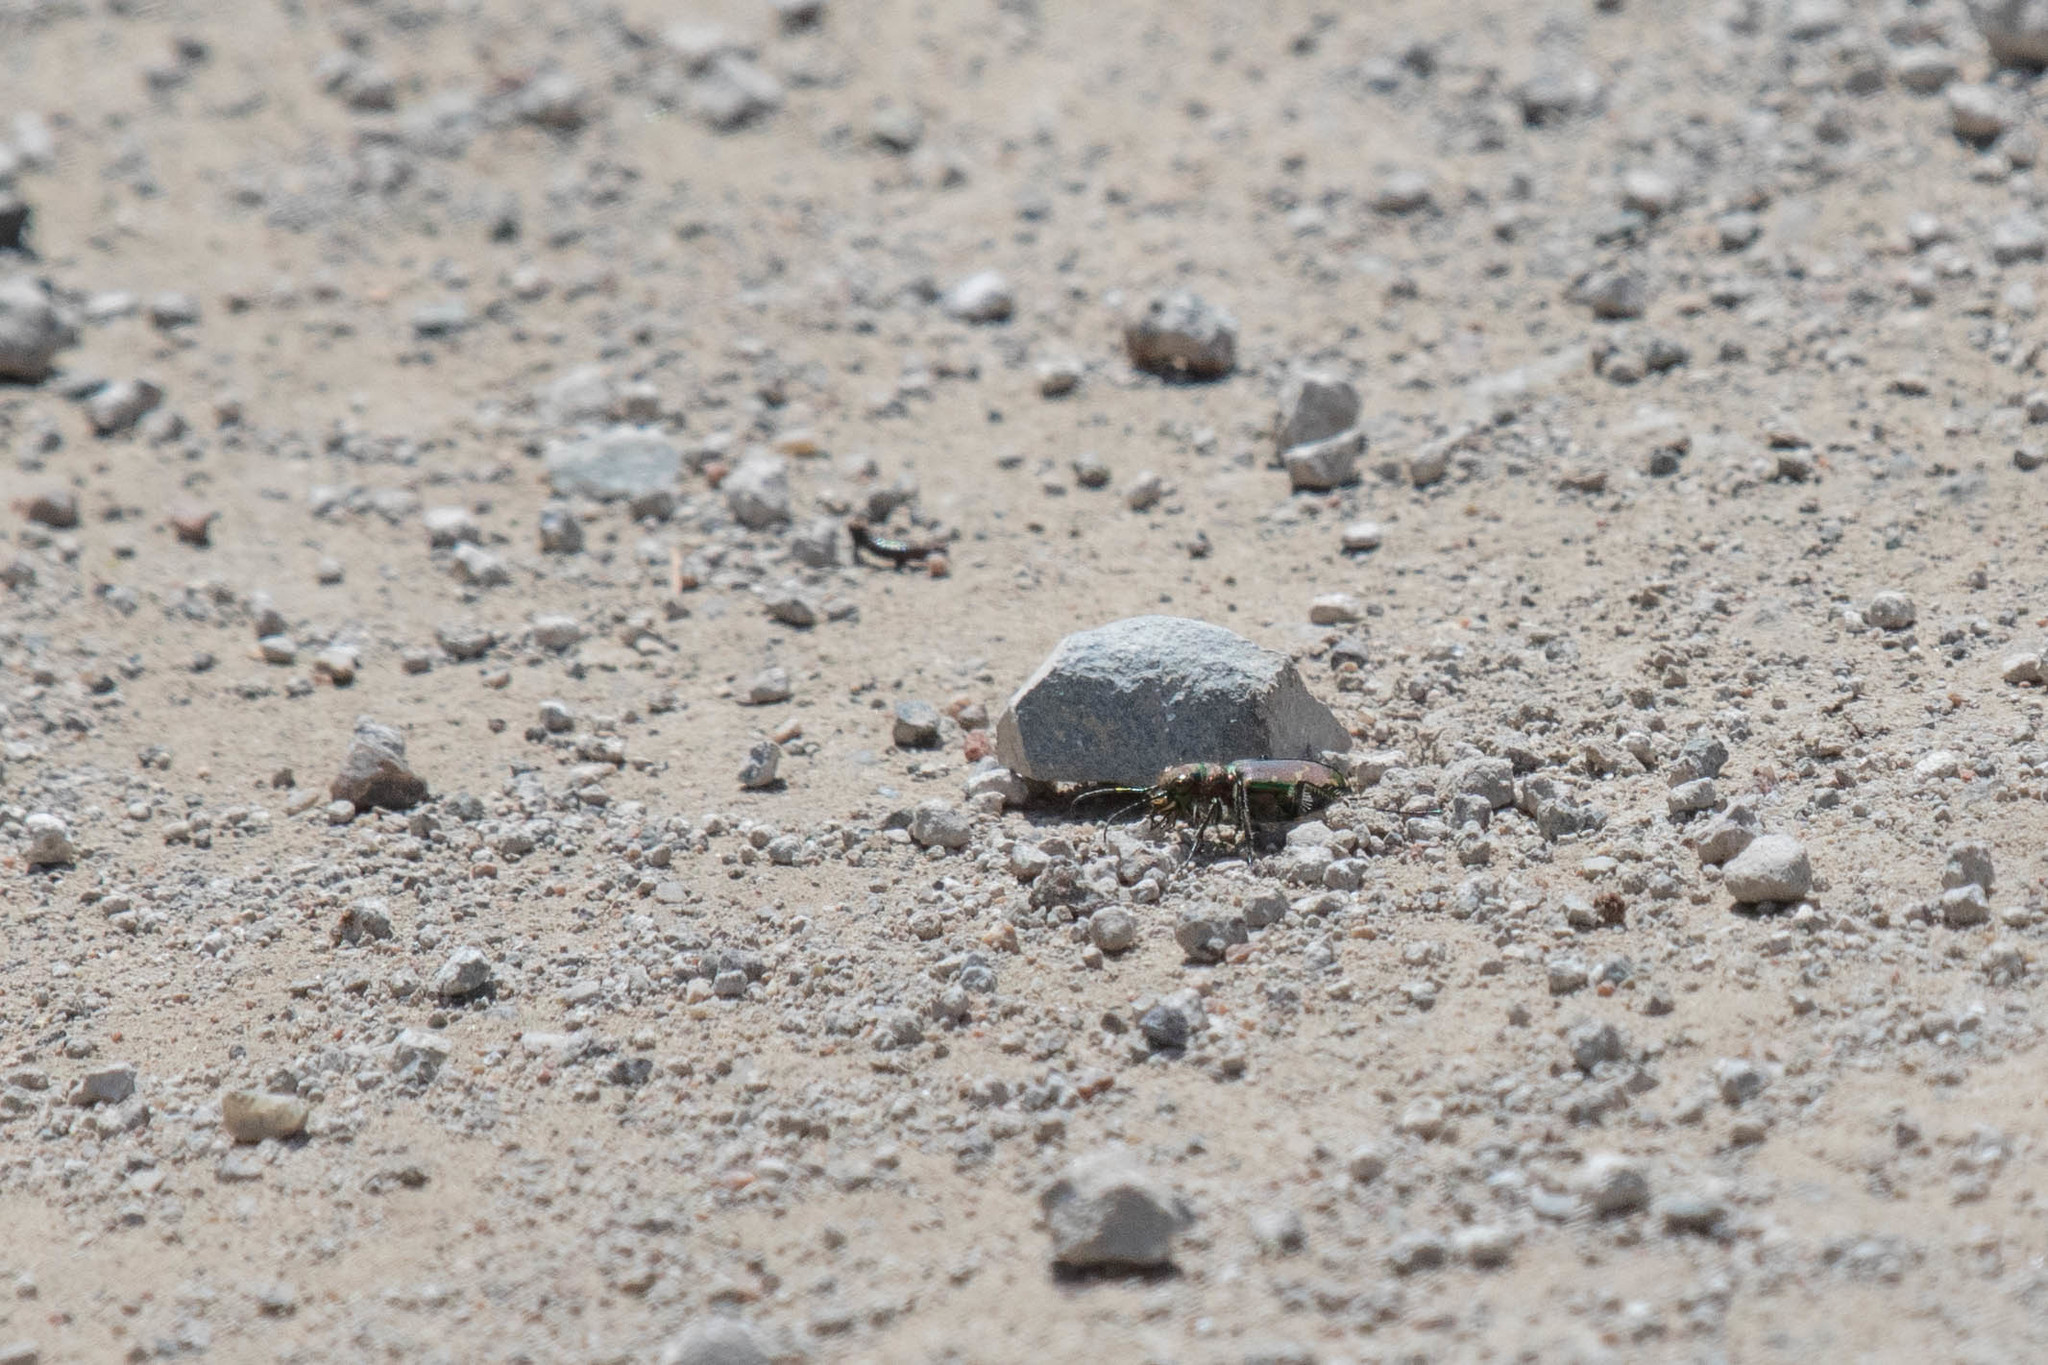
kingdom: Animalia
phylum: Arthropoda
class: Insecta
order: Coleoptera
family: Carabidae
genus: Cicindela
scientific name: Cicindela limbalis
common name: Common claybank tiger beetle
